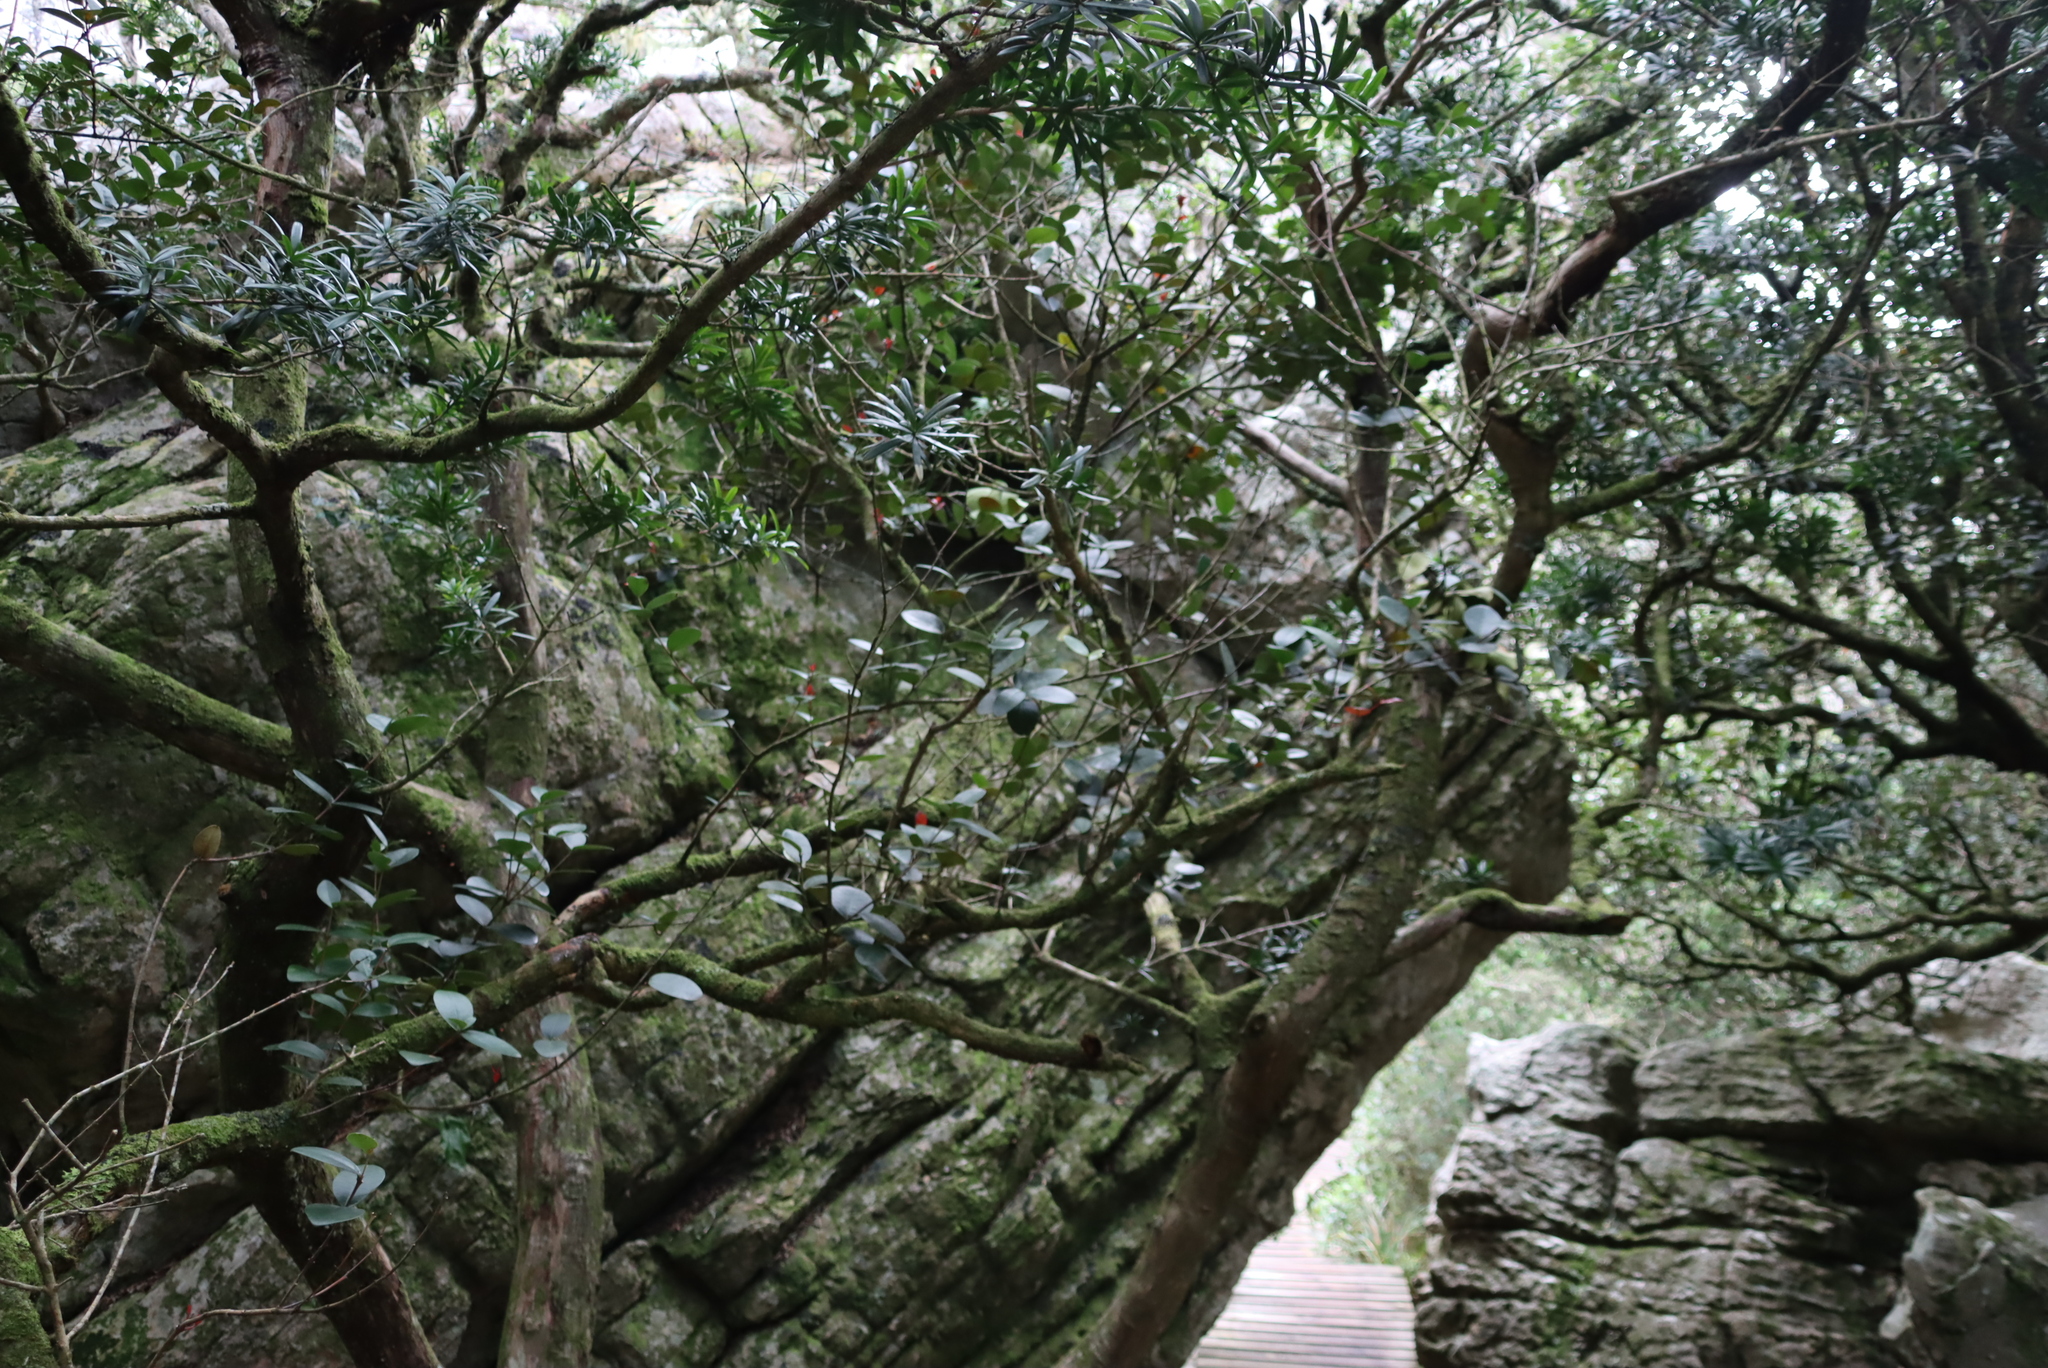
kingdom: Plantae
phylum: Tracheophyta
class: Pinopsida
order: Pinales
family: Podocarpaceae
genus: Podocarpus
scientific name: Podocarpus latifolius
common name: True yellowwood
